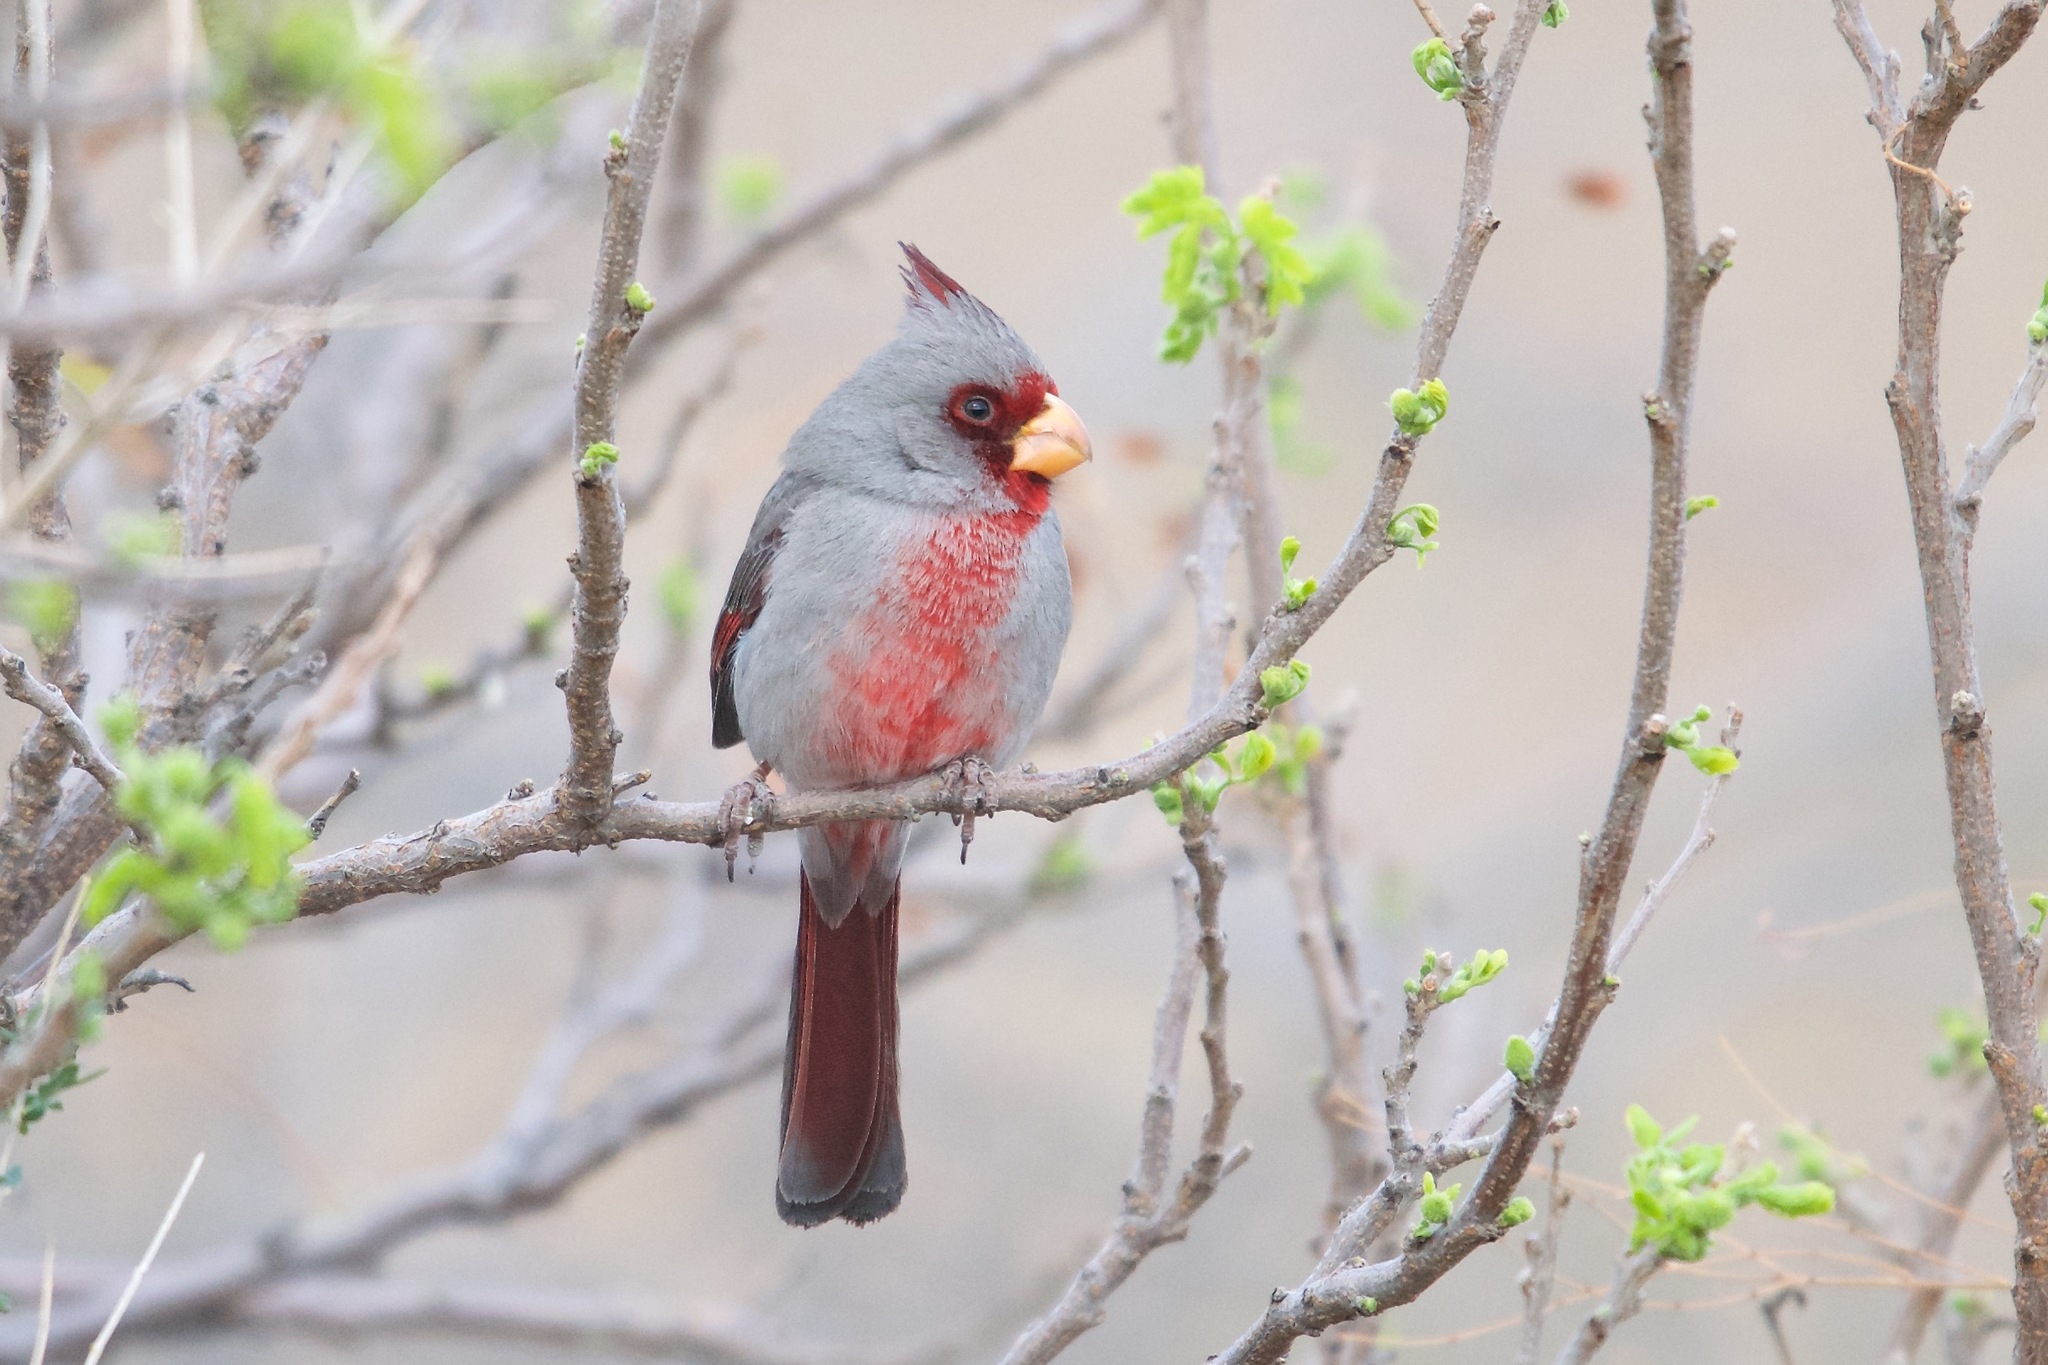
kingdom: Animalia
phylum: Chordata
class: Aves
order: Passeriformes
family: Cardinalidae
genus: Cardinalis
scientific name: Cardinalis sinuatus
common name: Pyrrhuloxia
